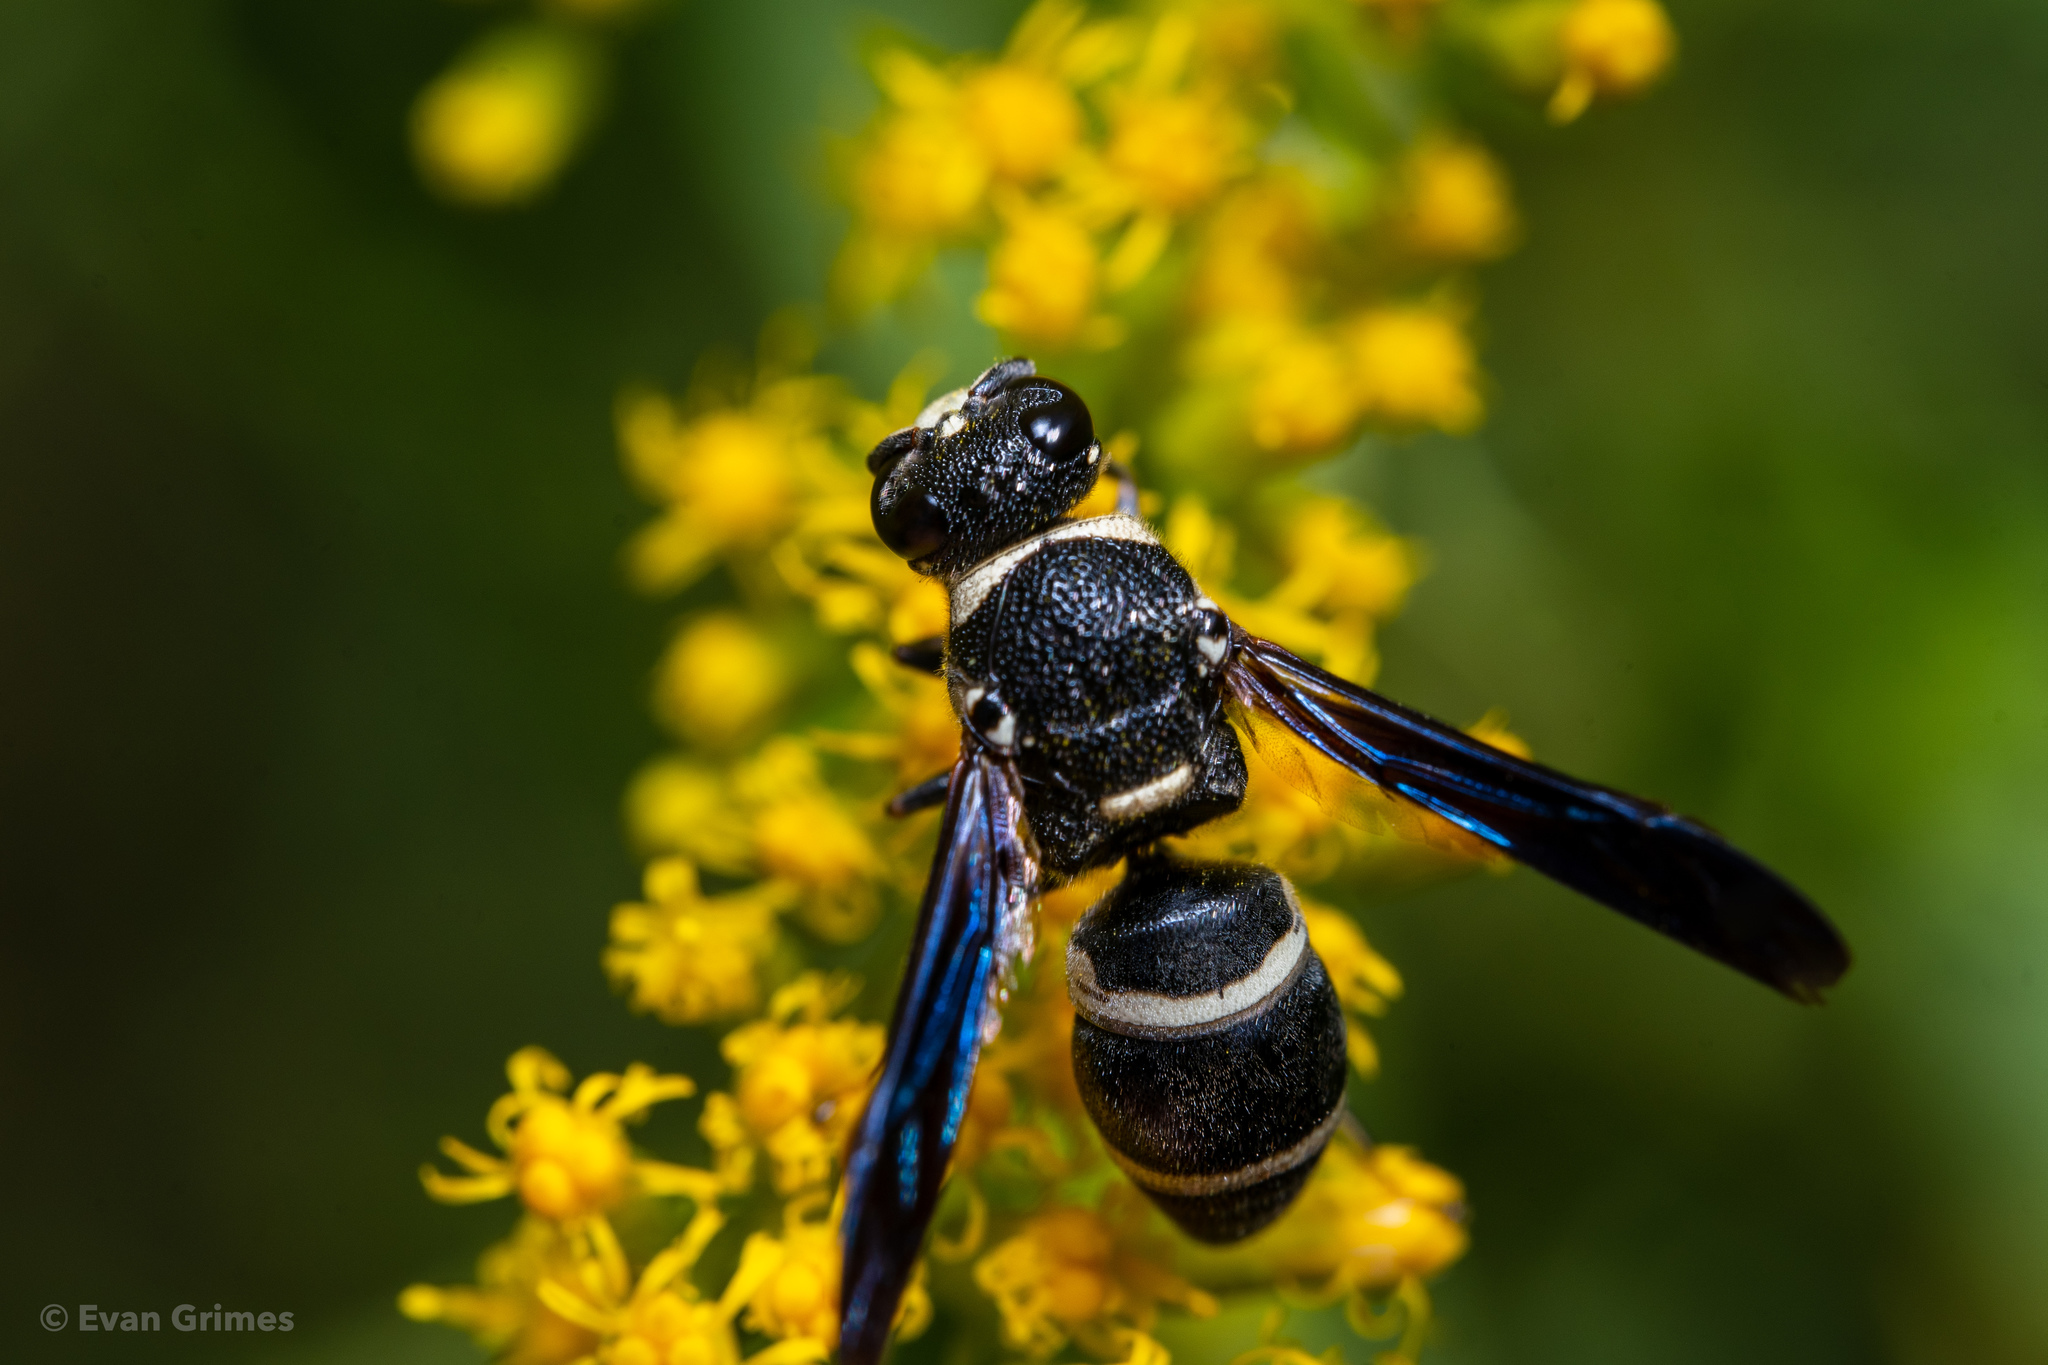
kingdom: Animalia
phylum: Arthropoda
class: Insecta
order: Hymenoptera
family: Eumenidae
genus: Euodynerus
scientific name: Euodynerus
